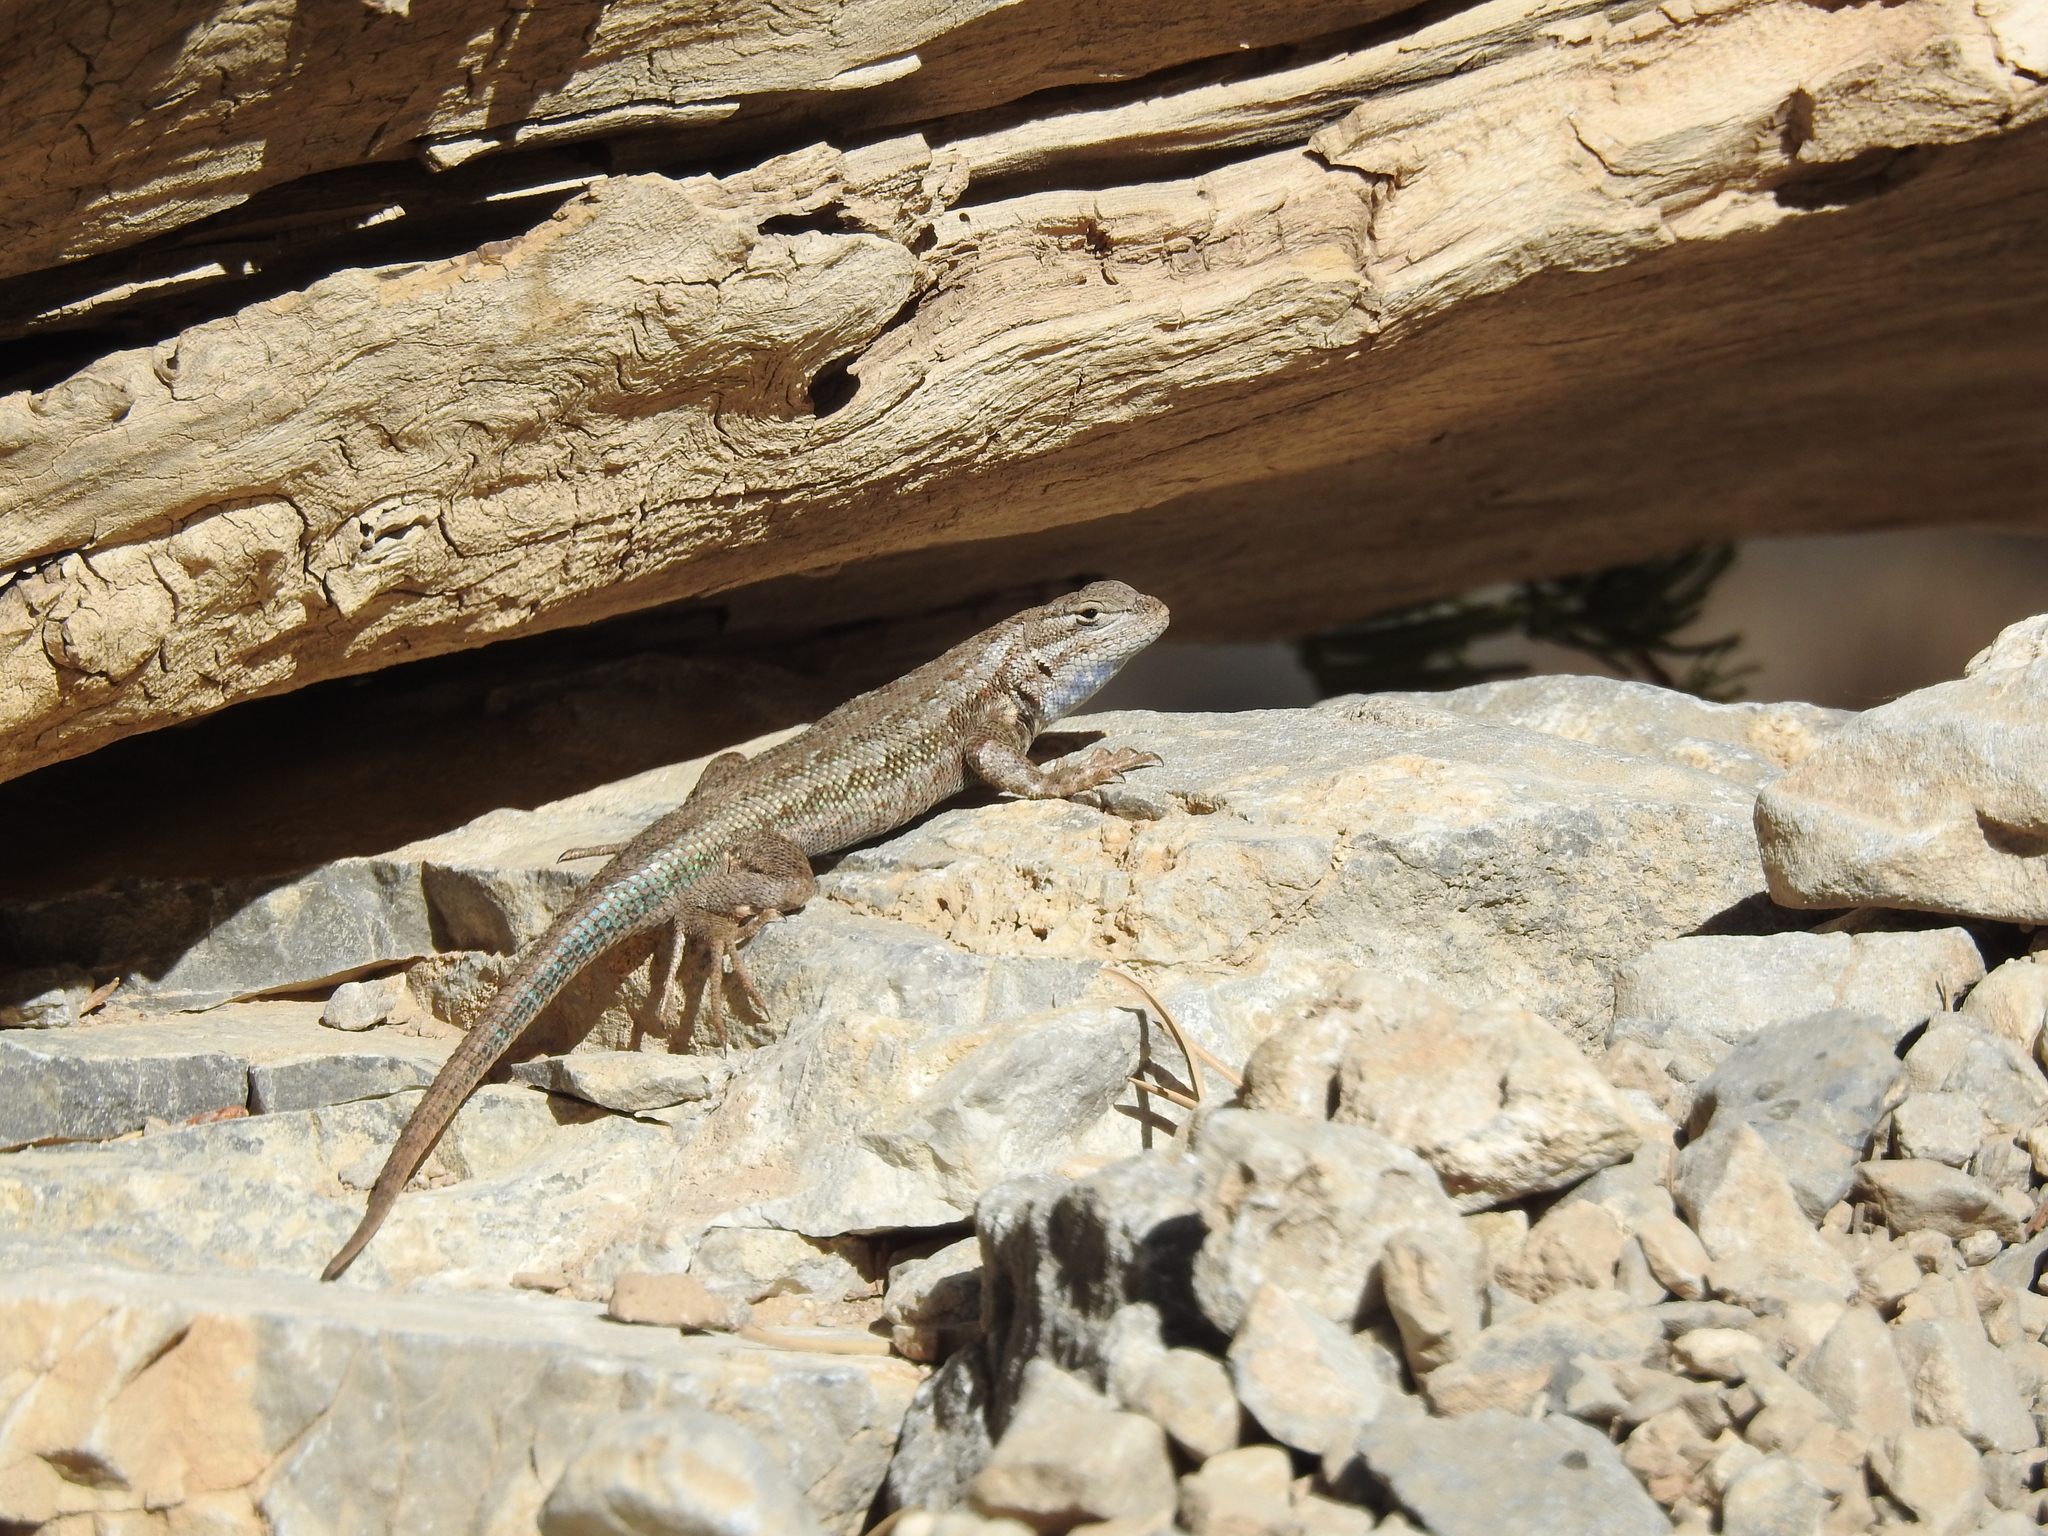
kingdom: Animalia
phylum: Chordata
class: Squamata
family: Phrynosomatidae
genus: Sceloporus
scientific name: Sceloporus graciosus
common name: Sagebrush lizard
